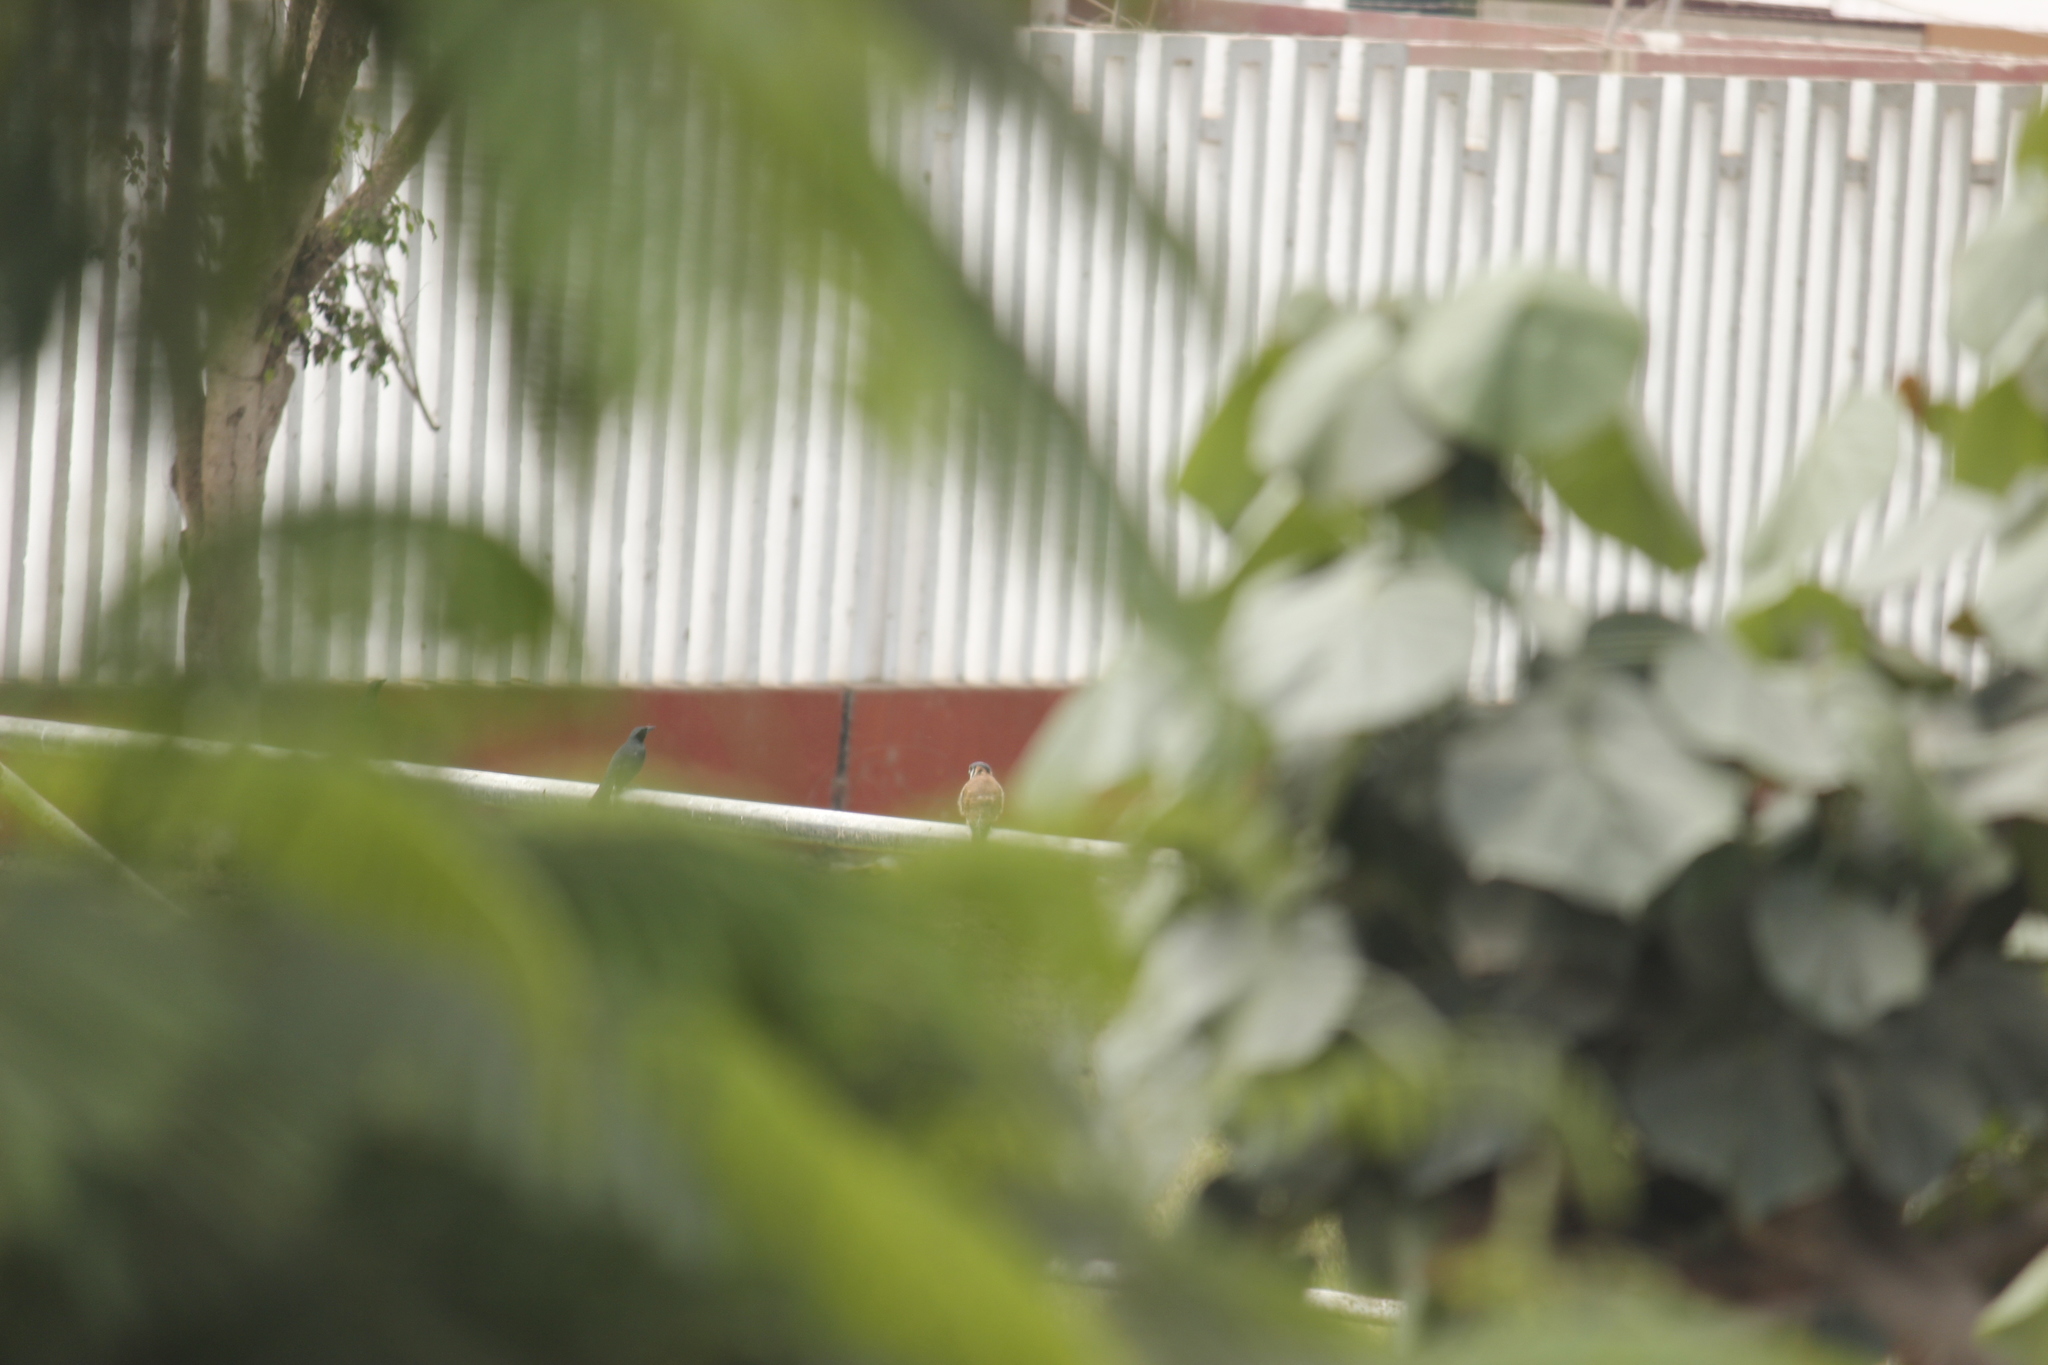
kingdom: Animalia
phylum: Chordata
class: Aves
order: Falconiformes
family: Falconidae
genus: Falco
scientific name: Falco sparverius
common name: American kestrel
